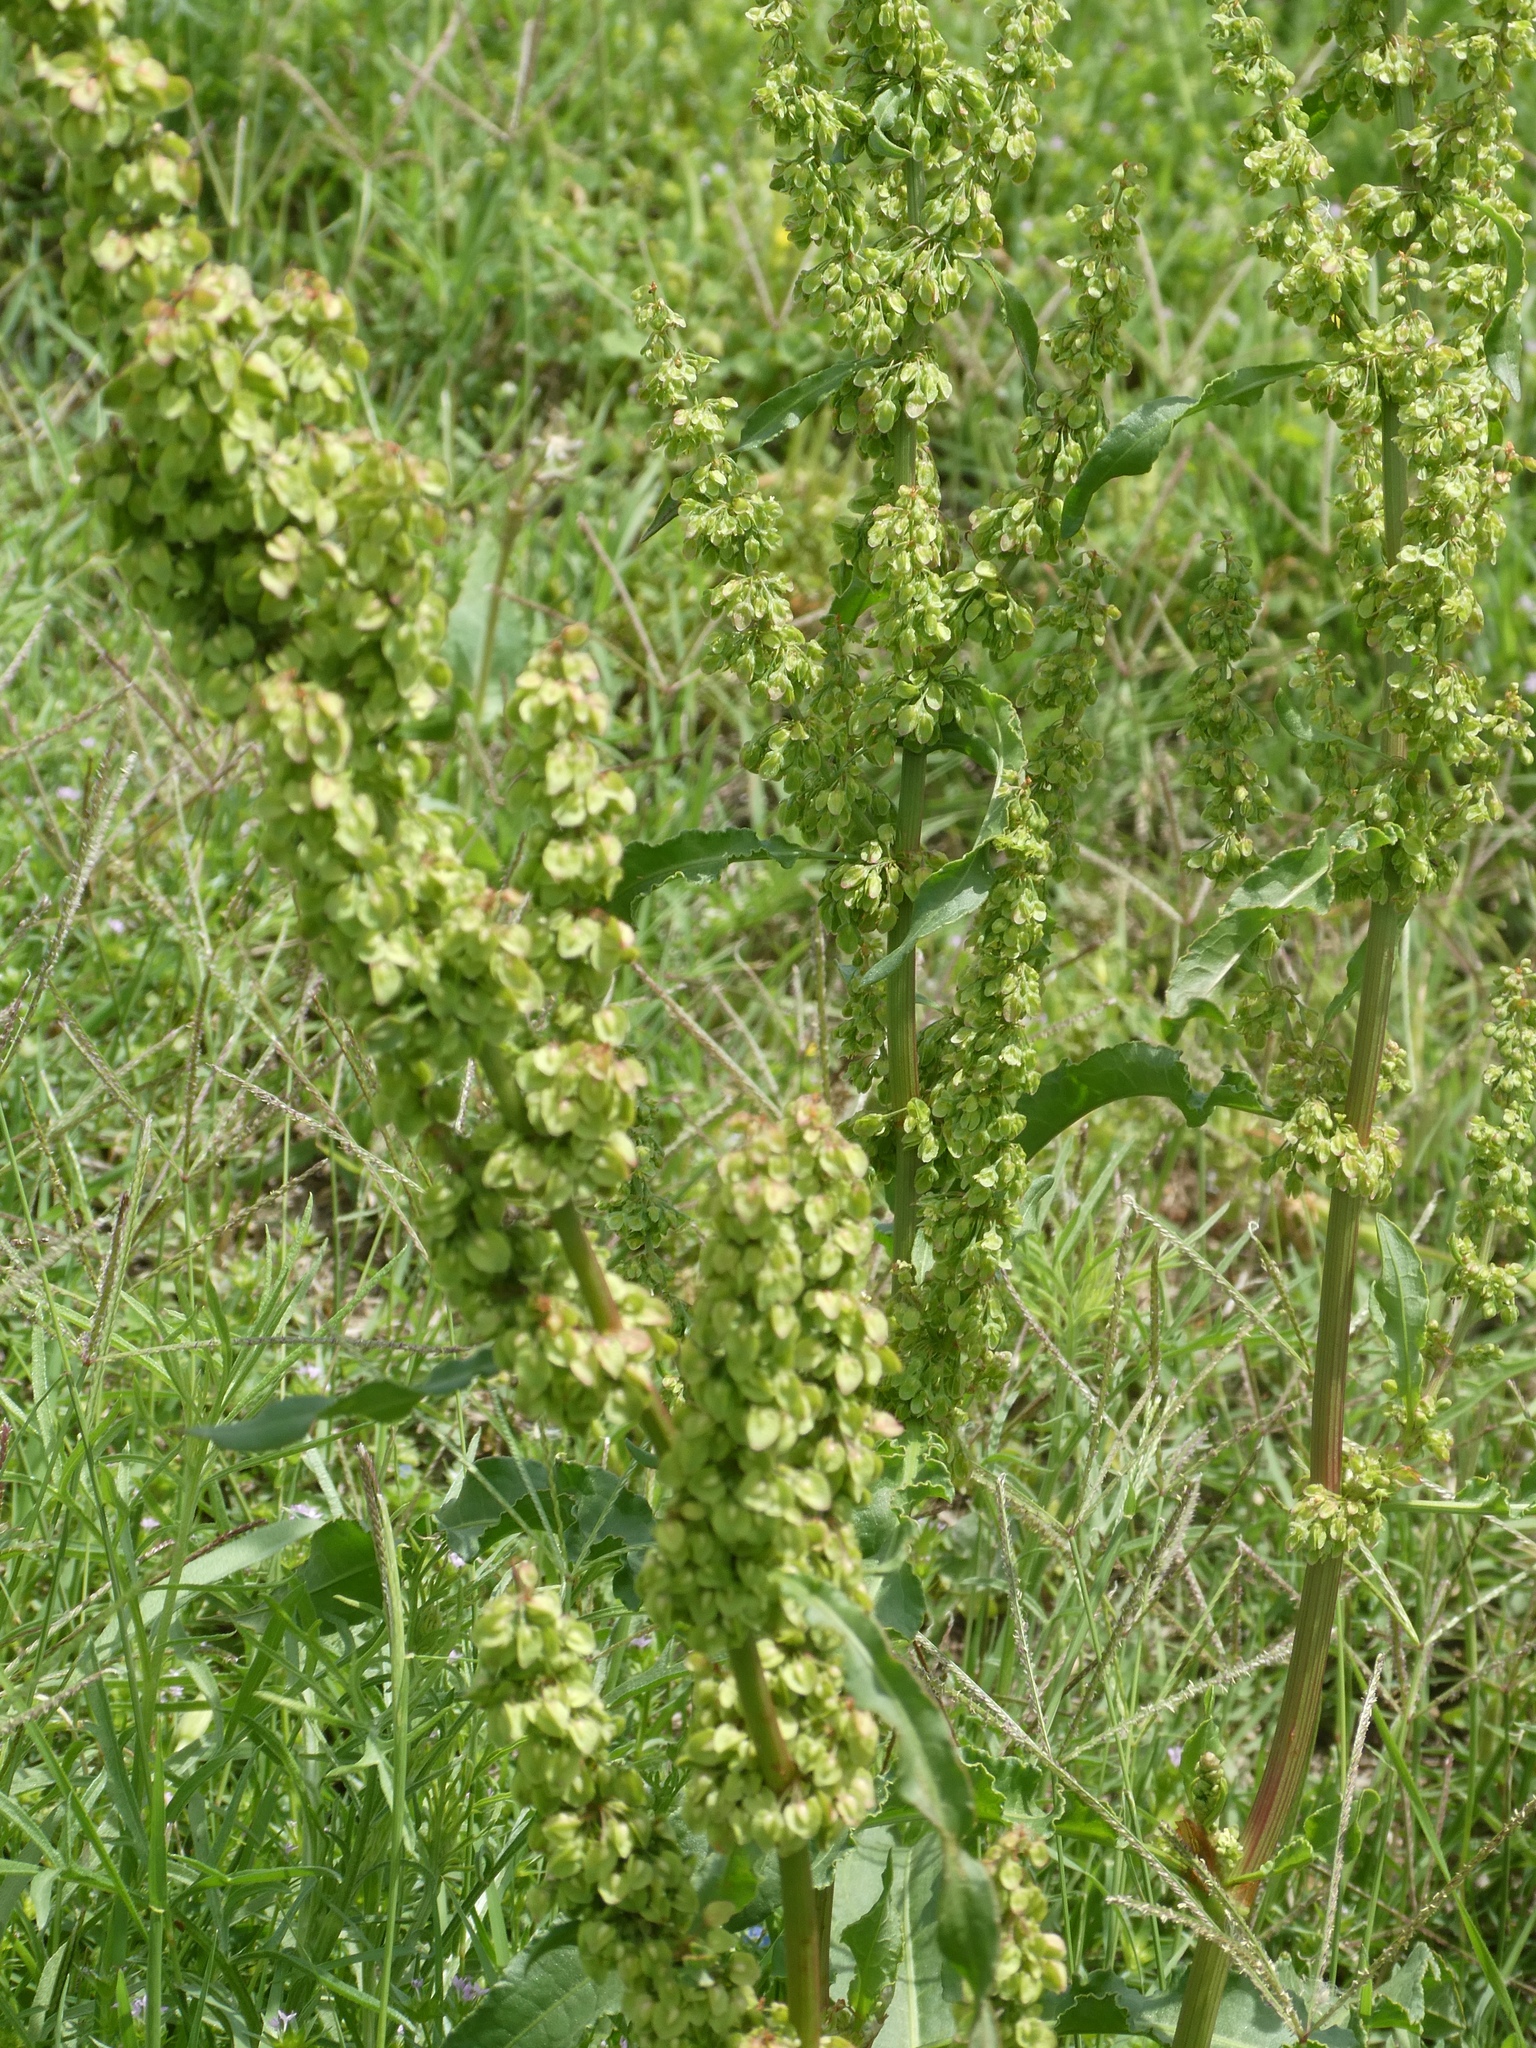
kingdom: Plantae
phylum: Tracheophyta
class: Magnoliopsida
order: Caryophyllales
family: Polygonaceae
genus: Rumex
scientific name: Rumex crispus
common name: Curled dock
